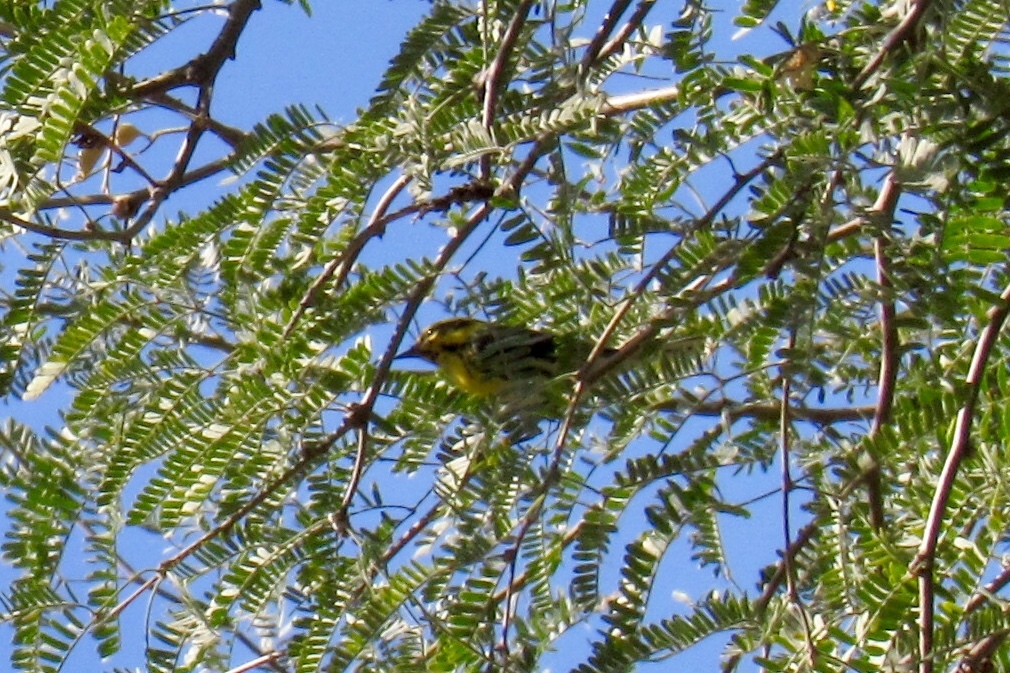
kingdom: Animalia
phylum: Chordata
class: Aves
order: Passeriformes
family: Parulidae
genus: Setophaga
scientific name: Setophaga townsendi
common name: Townsend's warbler
